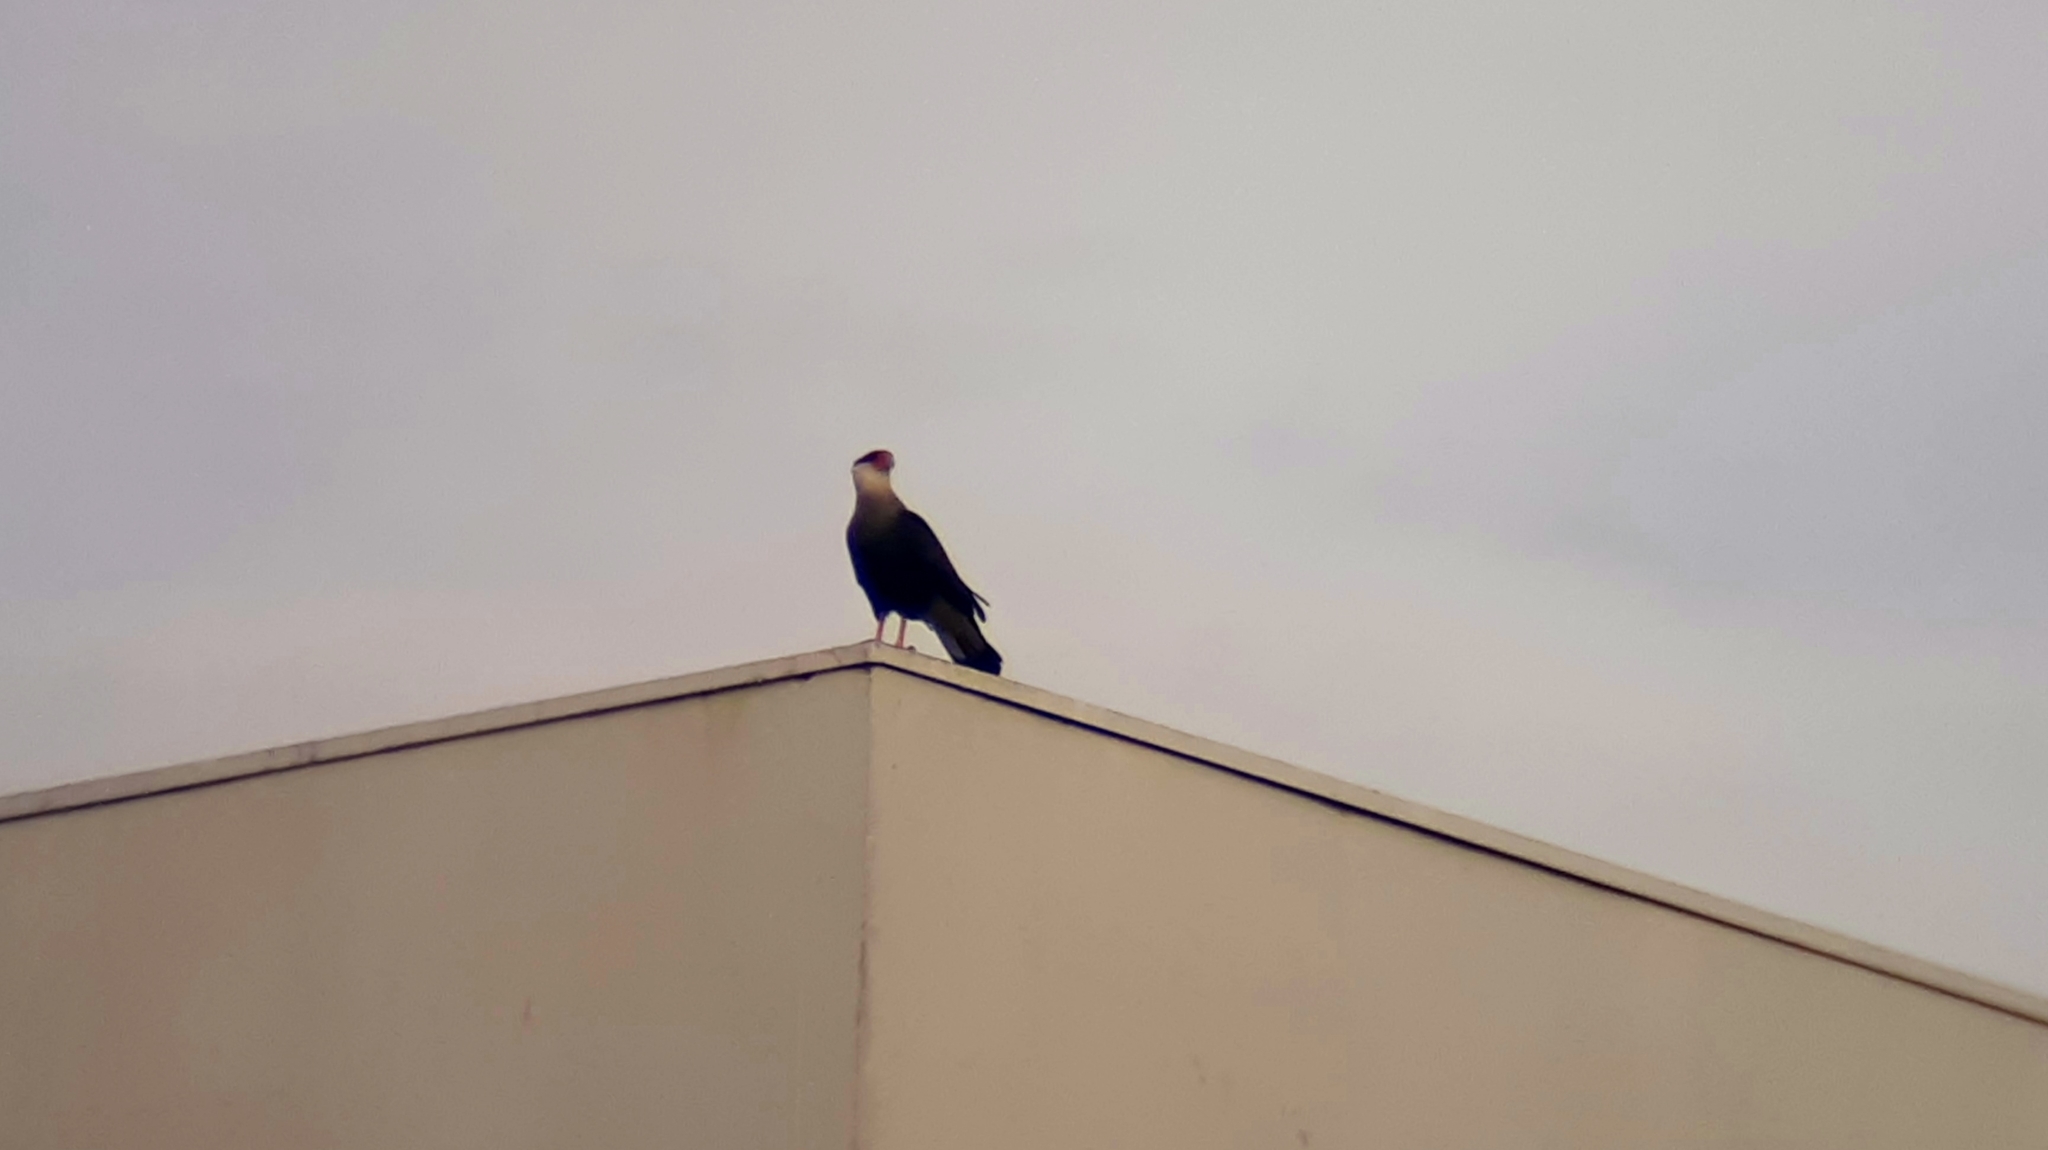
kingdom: Animalia
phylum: Chordata
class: Aves
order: Falconiformes
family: Falconidae
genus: Caracara
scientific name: Caracara plancus
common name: Southern caracara
